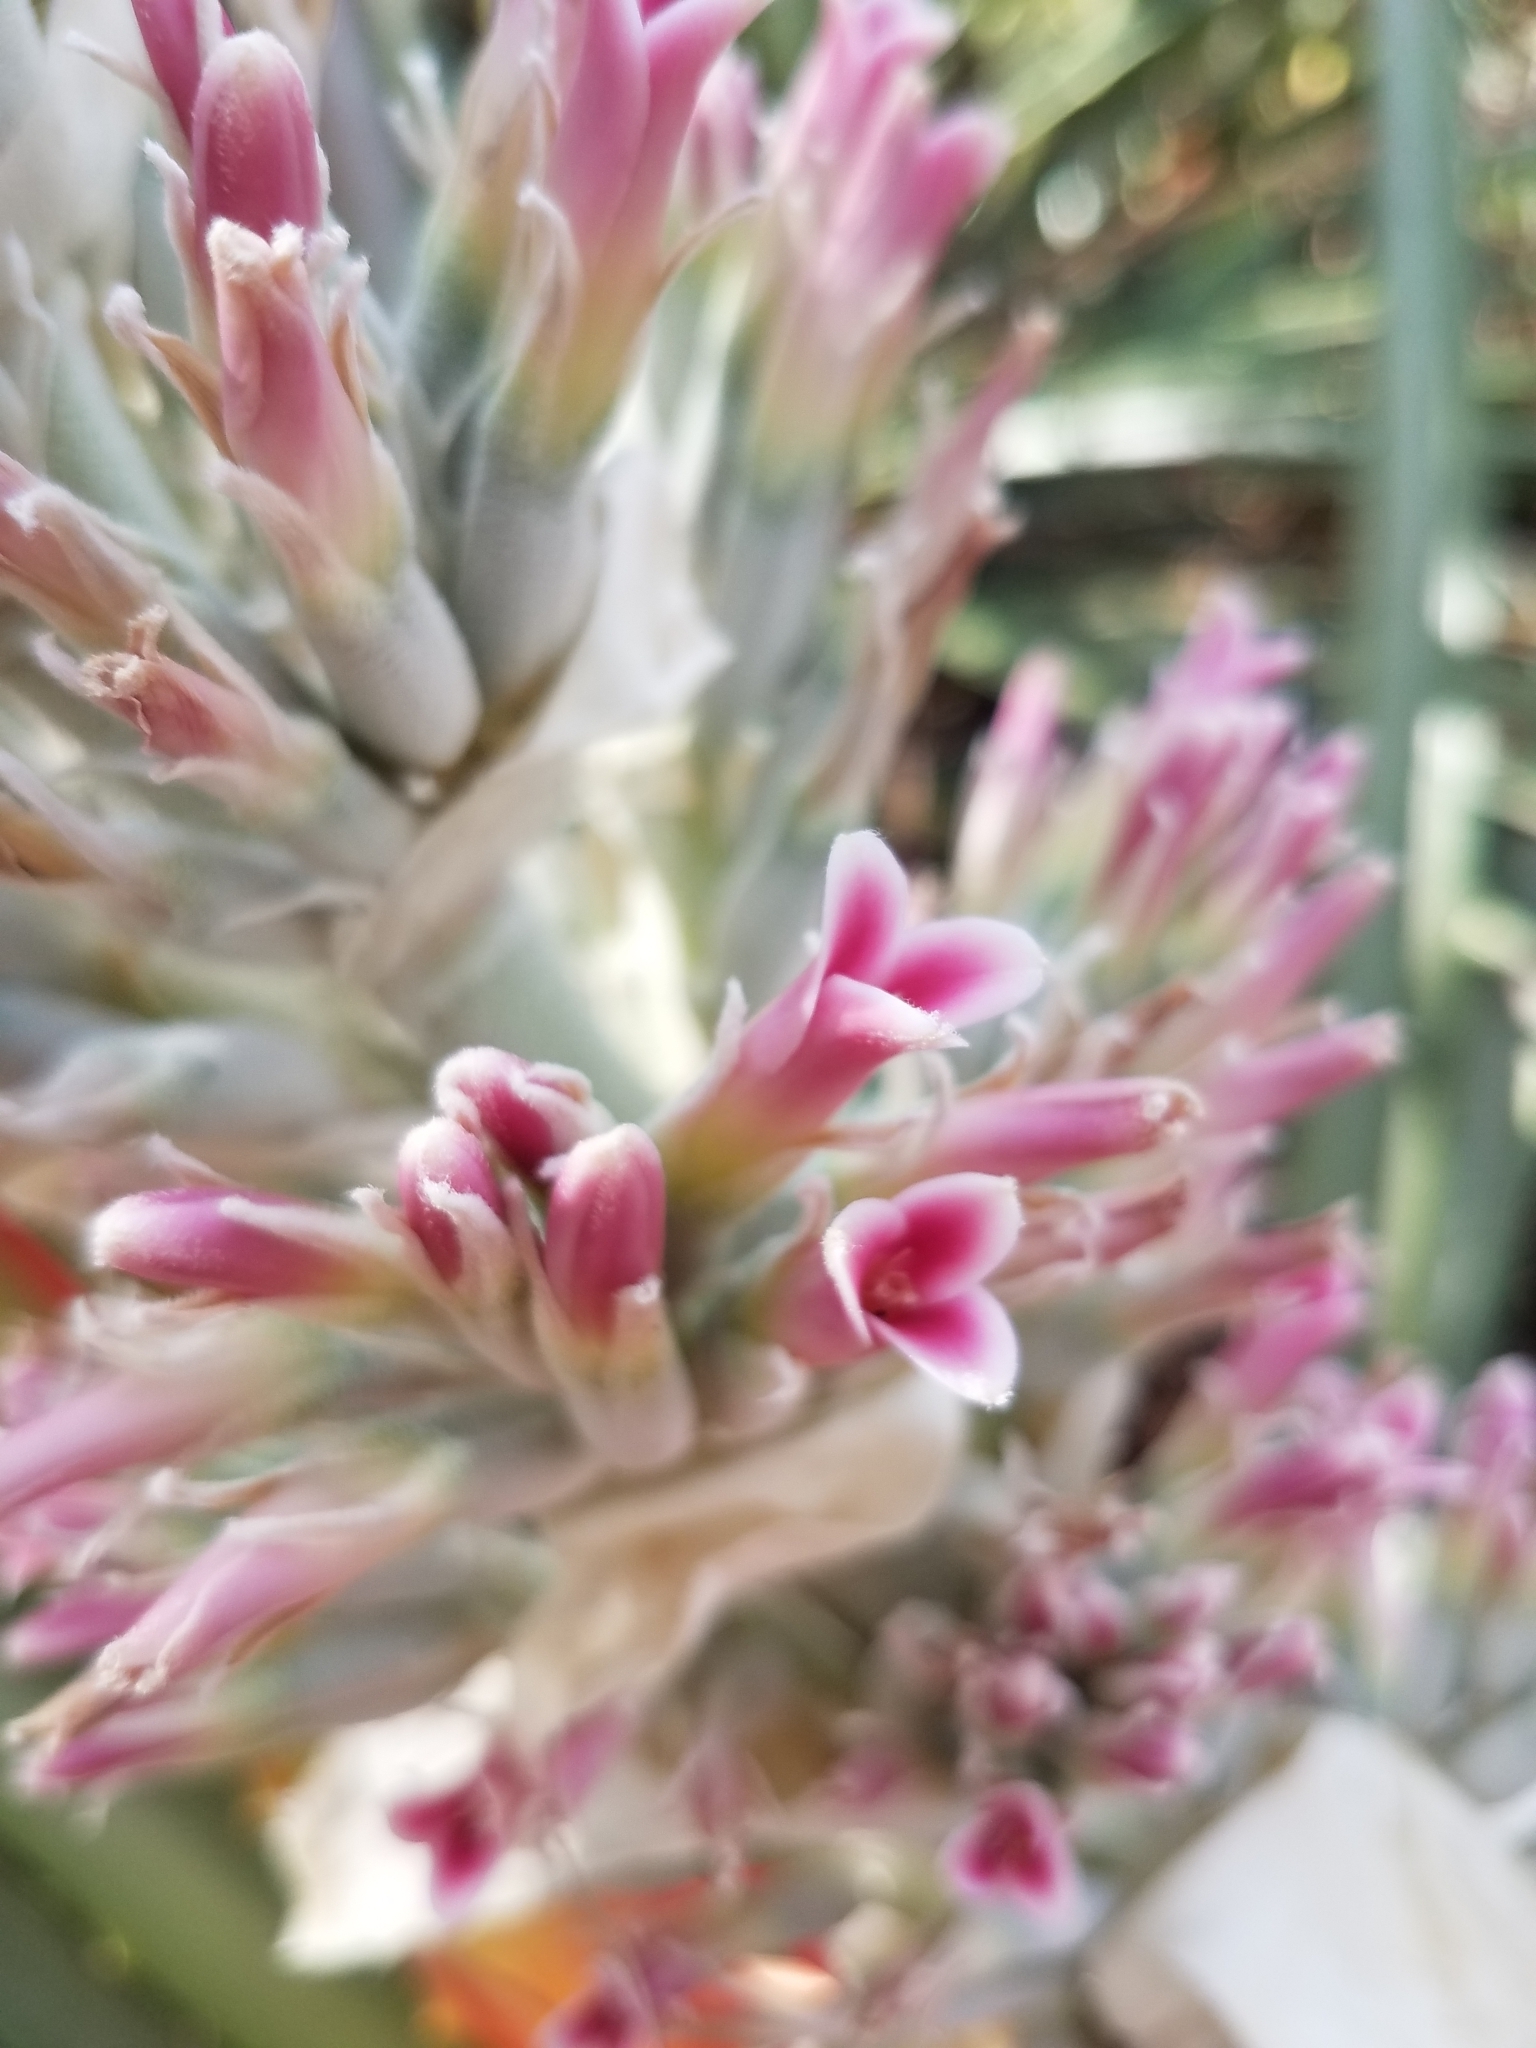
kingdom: Plantae
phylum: Tracheophyta
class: Liliopsida
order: Poales
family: Bromeliaceae
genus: Bromelia
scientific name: Bromelia pinguin
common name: Pinguin
